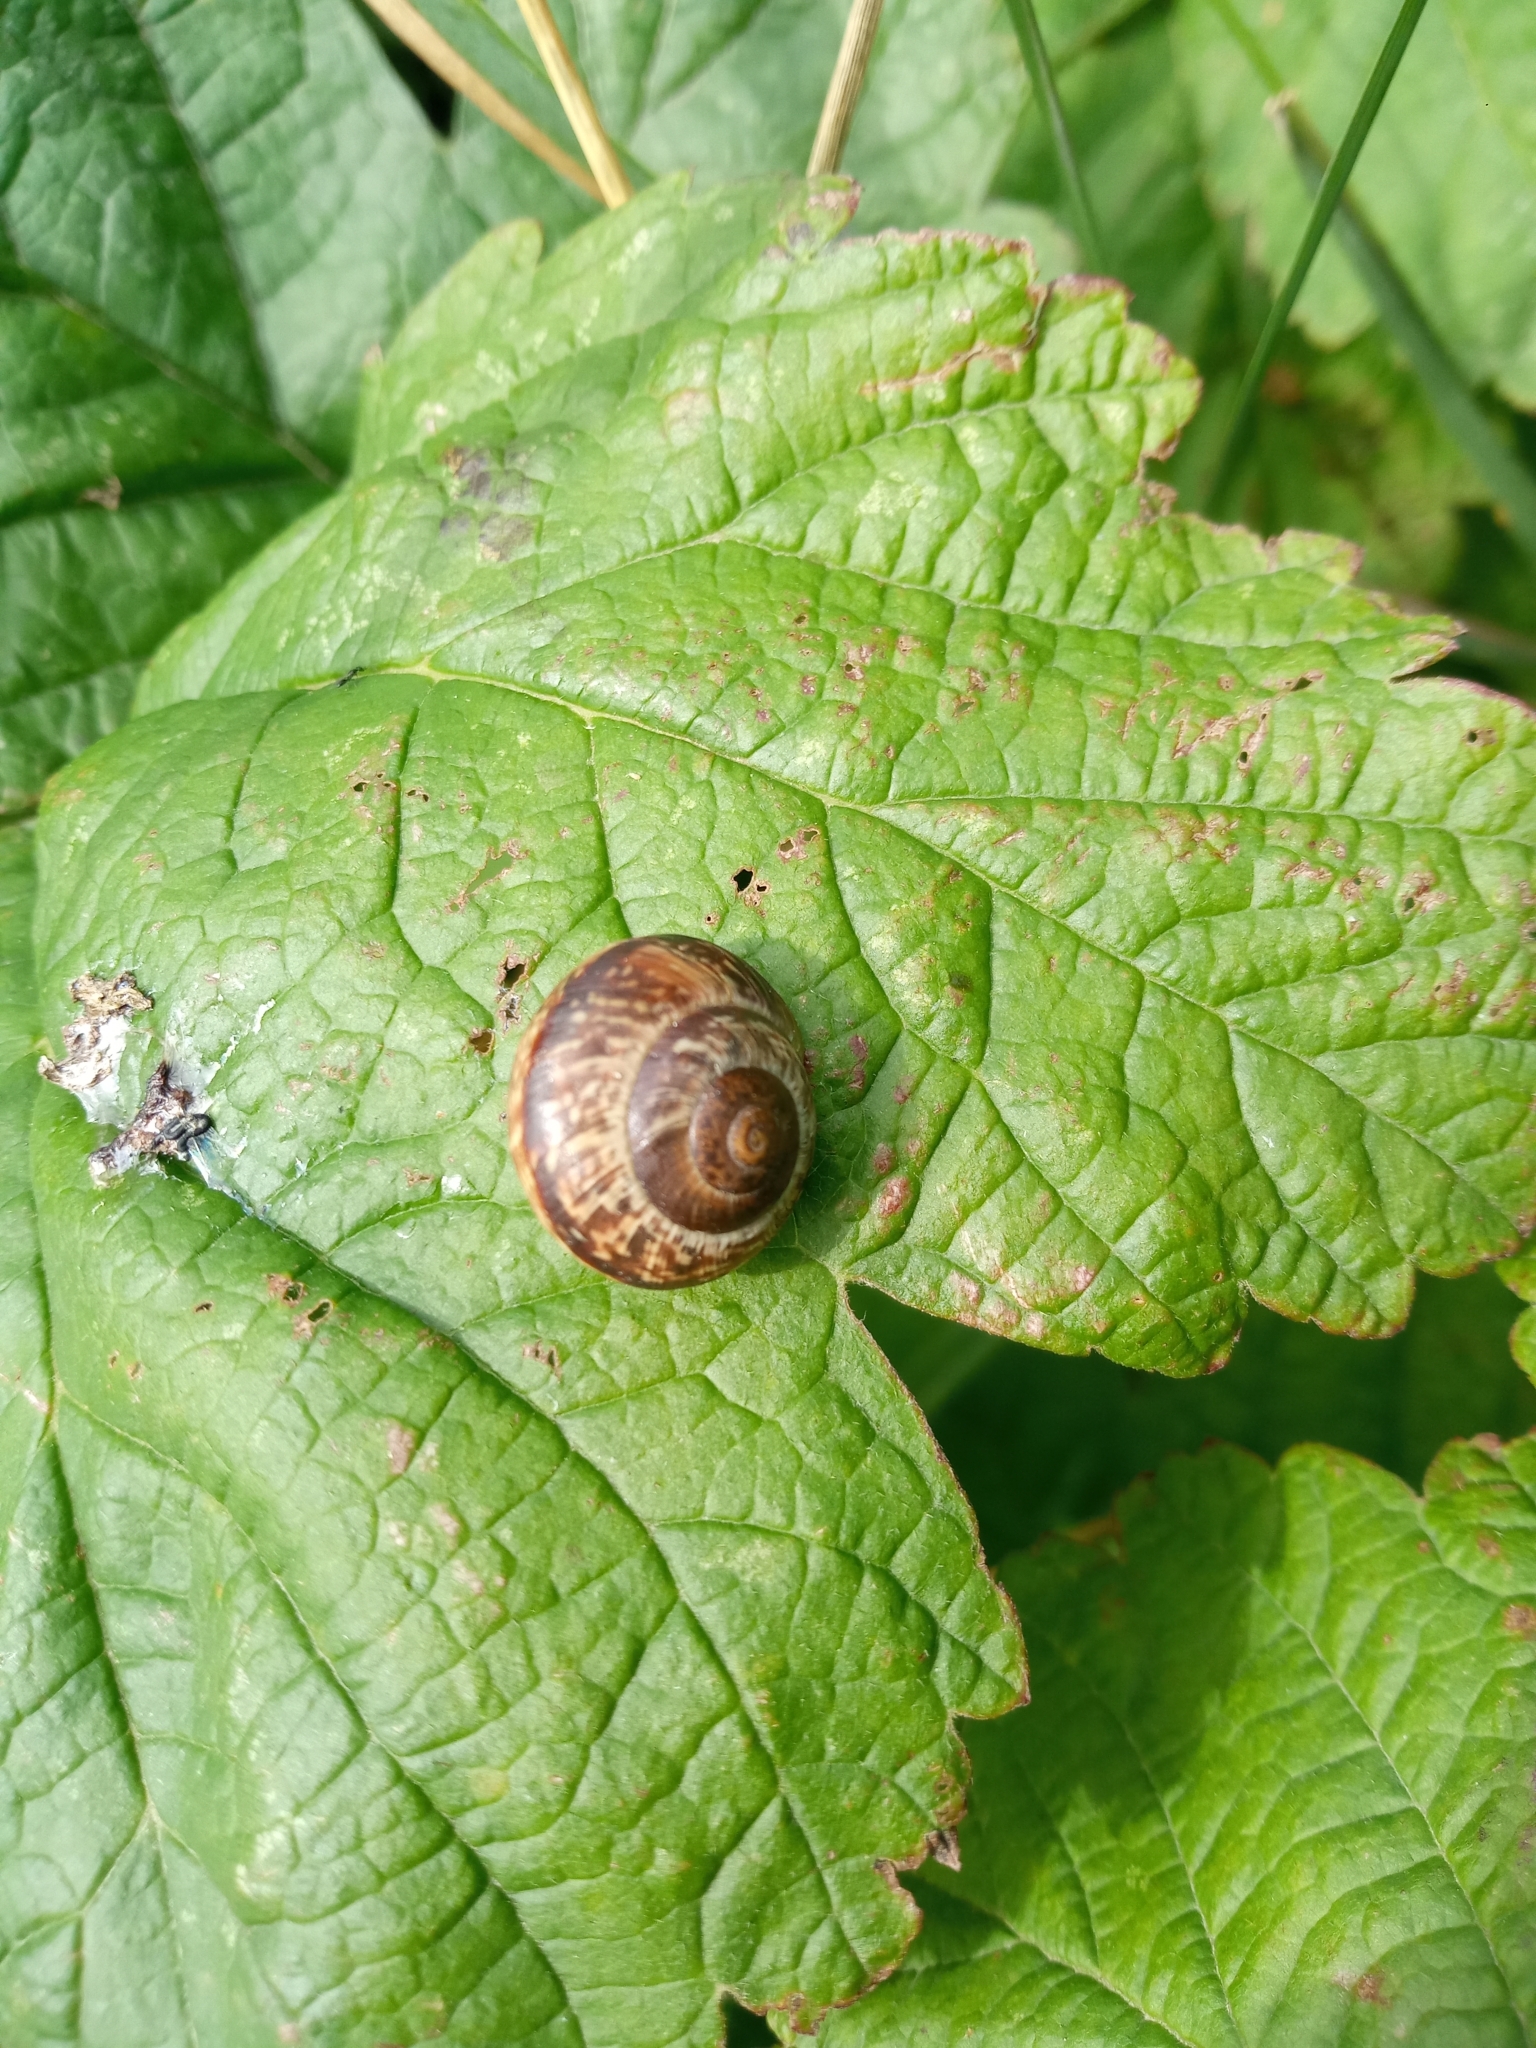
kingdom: Animalia
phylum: Mollusca
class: Gastropoda
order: Stylommatophora
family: Helicidae
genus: Arianta
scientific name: Arianta arbustorum
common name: Copse snail
